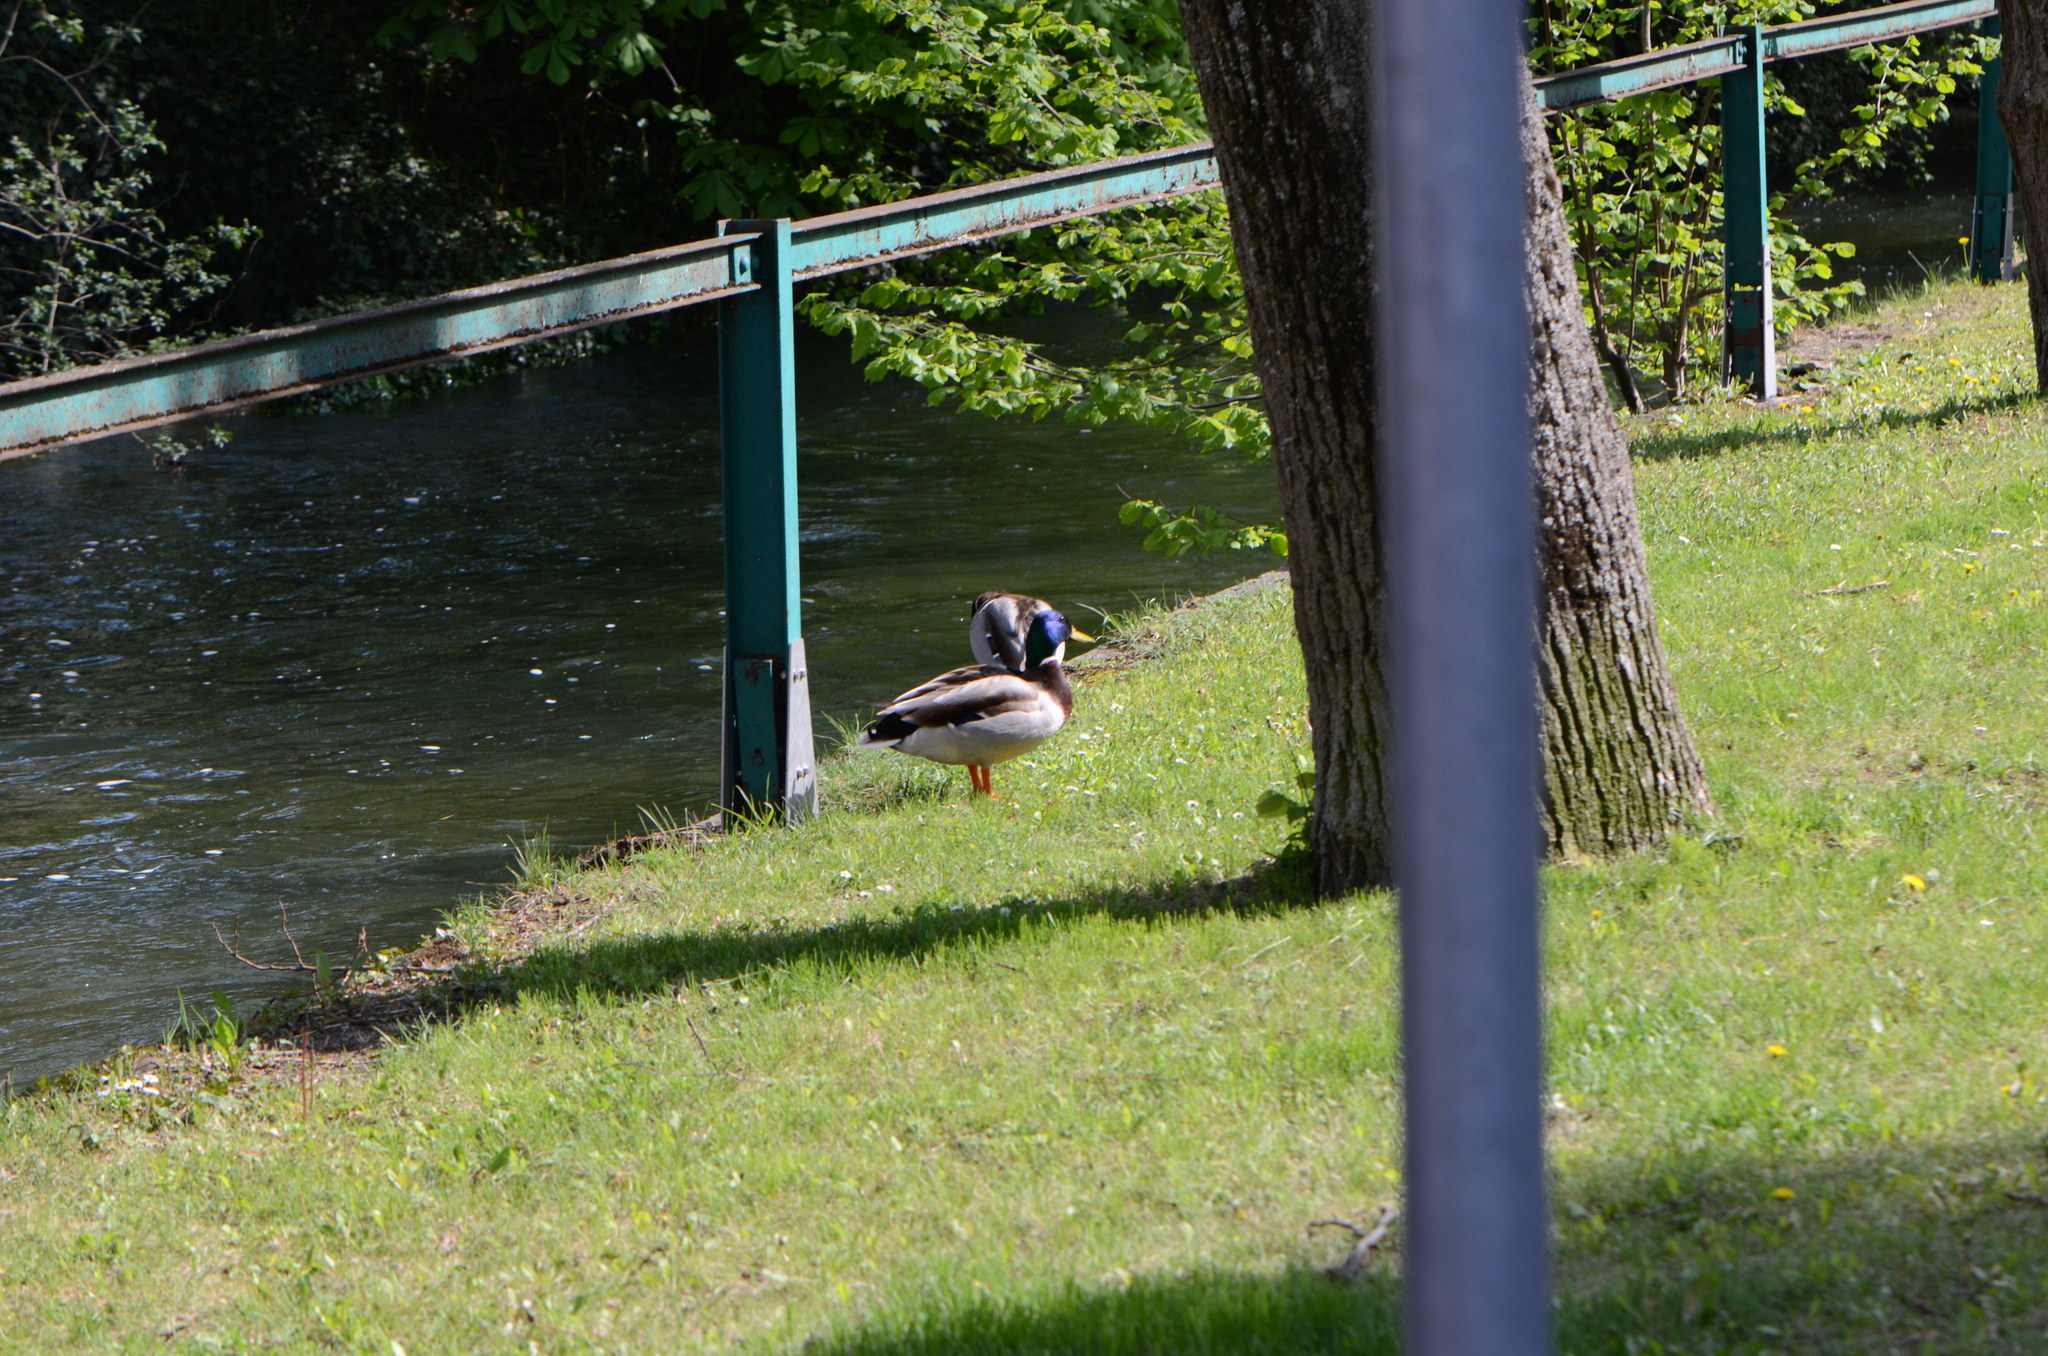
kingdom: Animalia
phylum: Chordata
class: Aves
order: Anseriformes
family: Anatidae
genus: Anas
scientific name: Anas platyrhynchos
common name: Mallard
